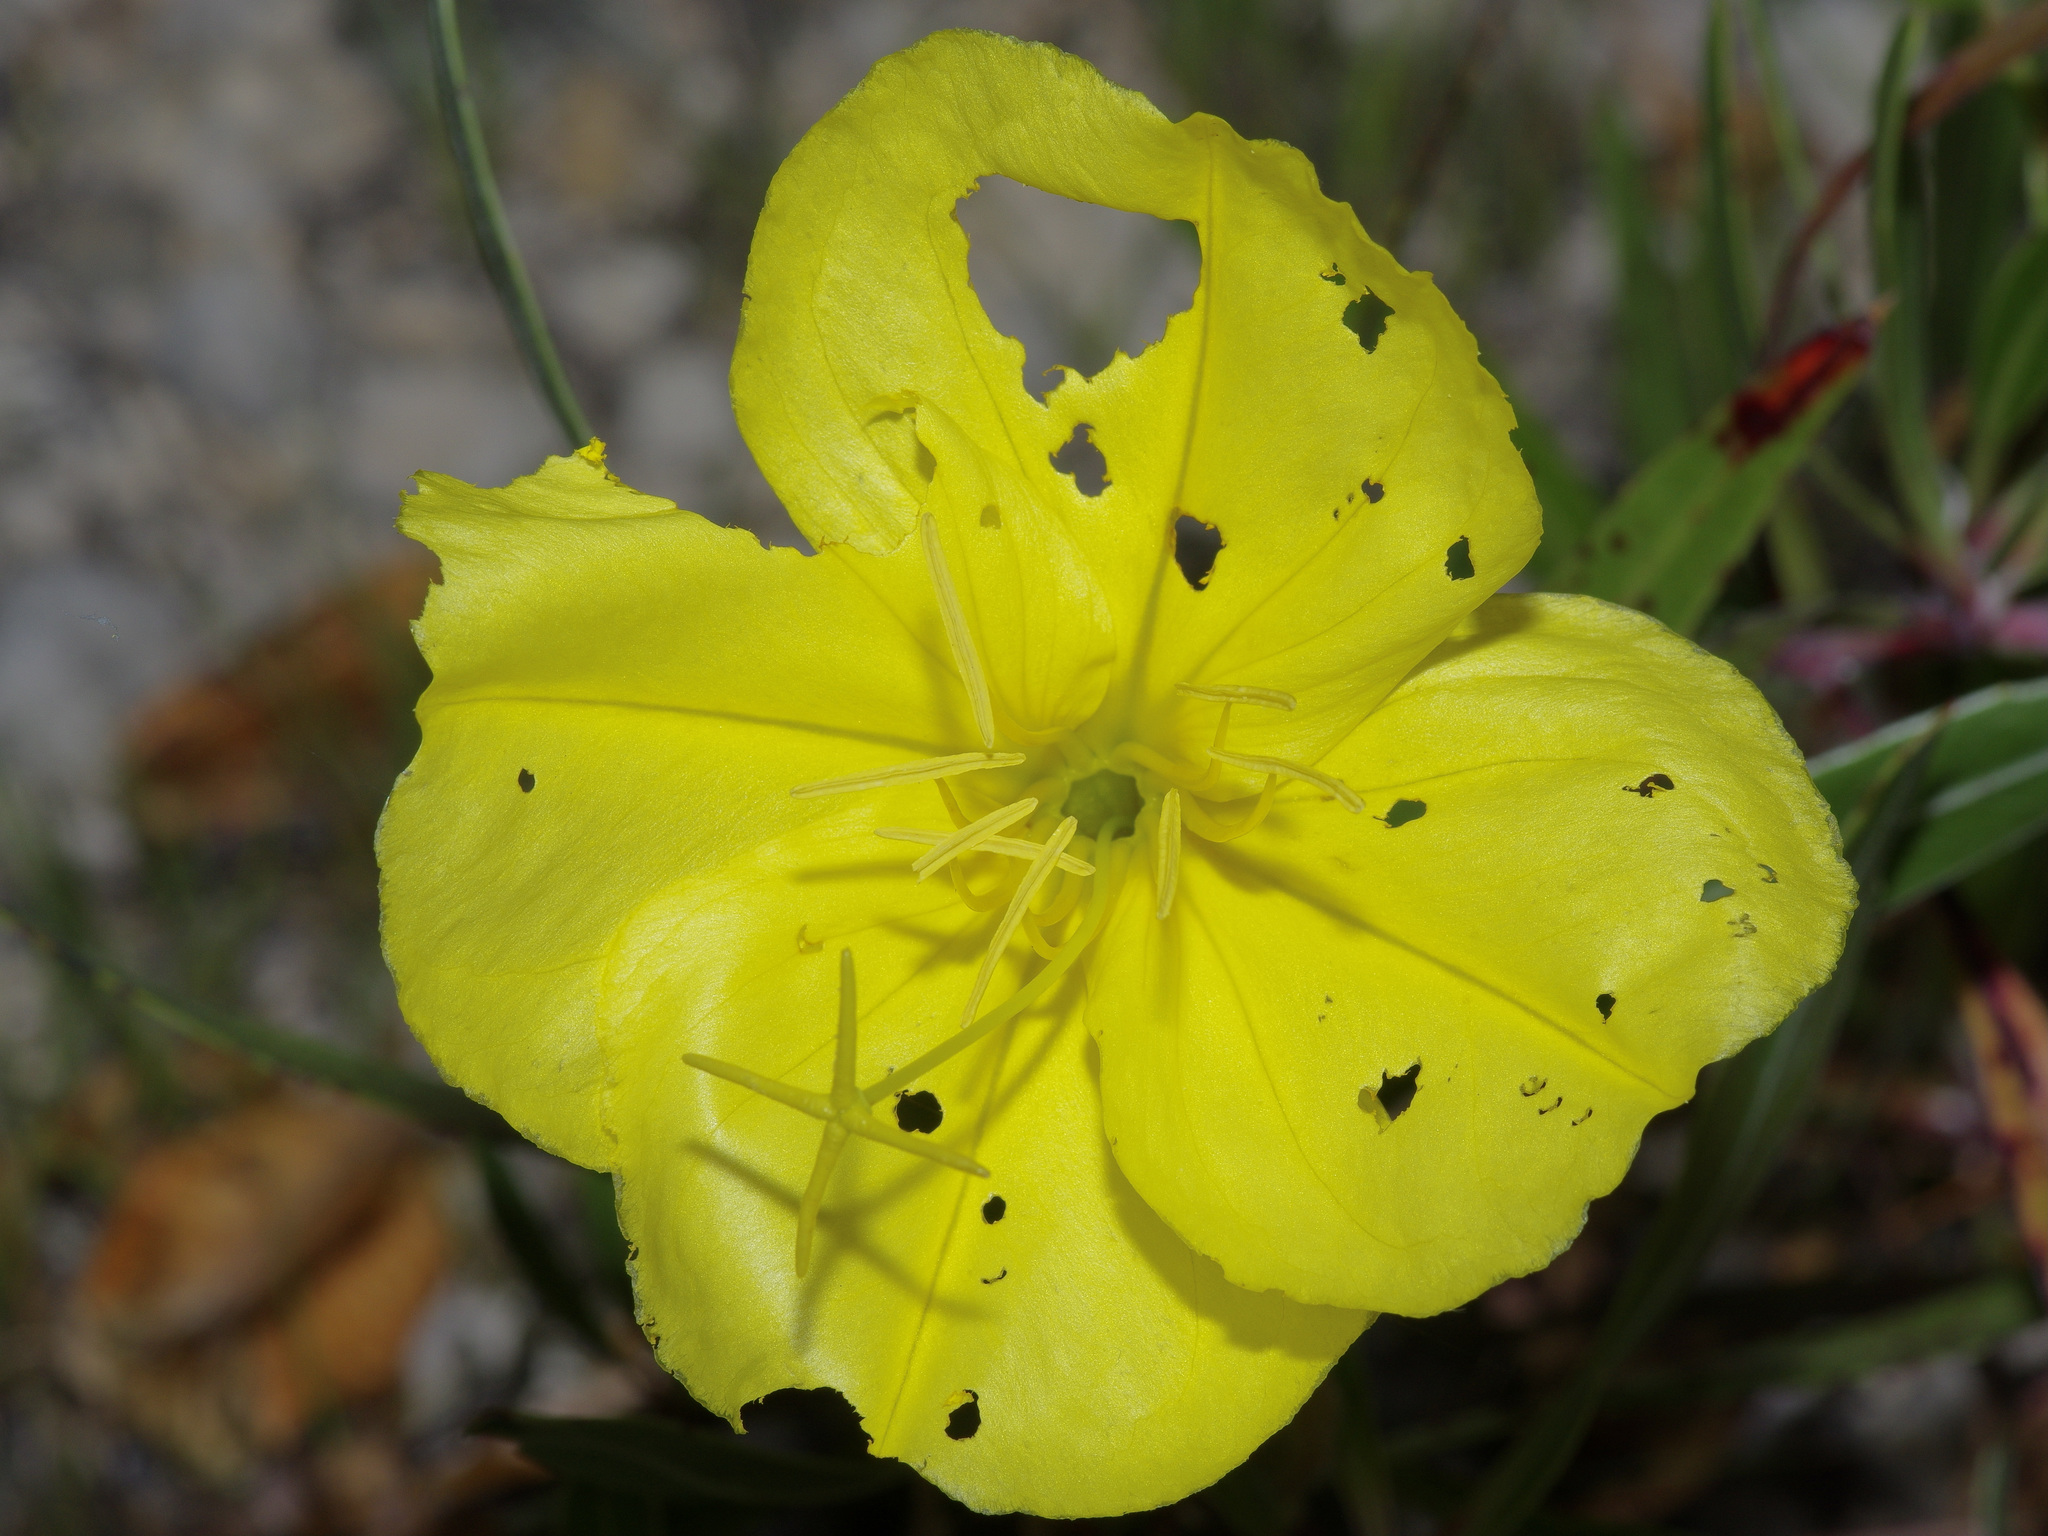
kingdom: Plantae
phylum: Tracheophyta
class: Magnoliopsida
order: Myrtales
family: Onagraceae
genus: Oenothera
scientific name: Oenothera macrocarpa
